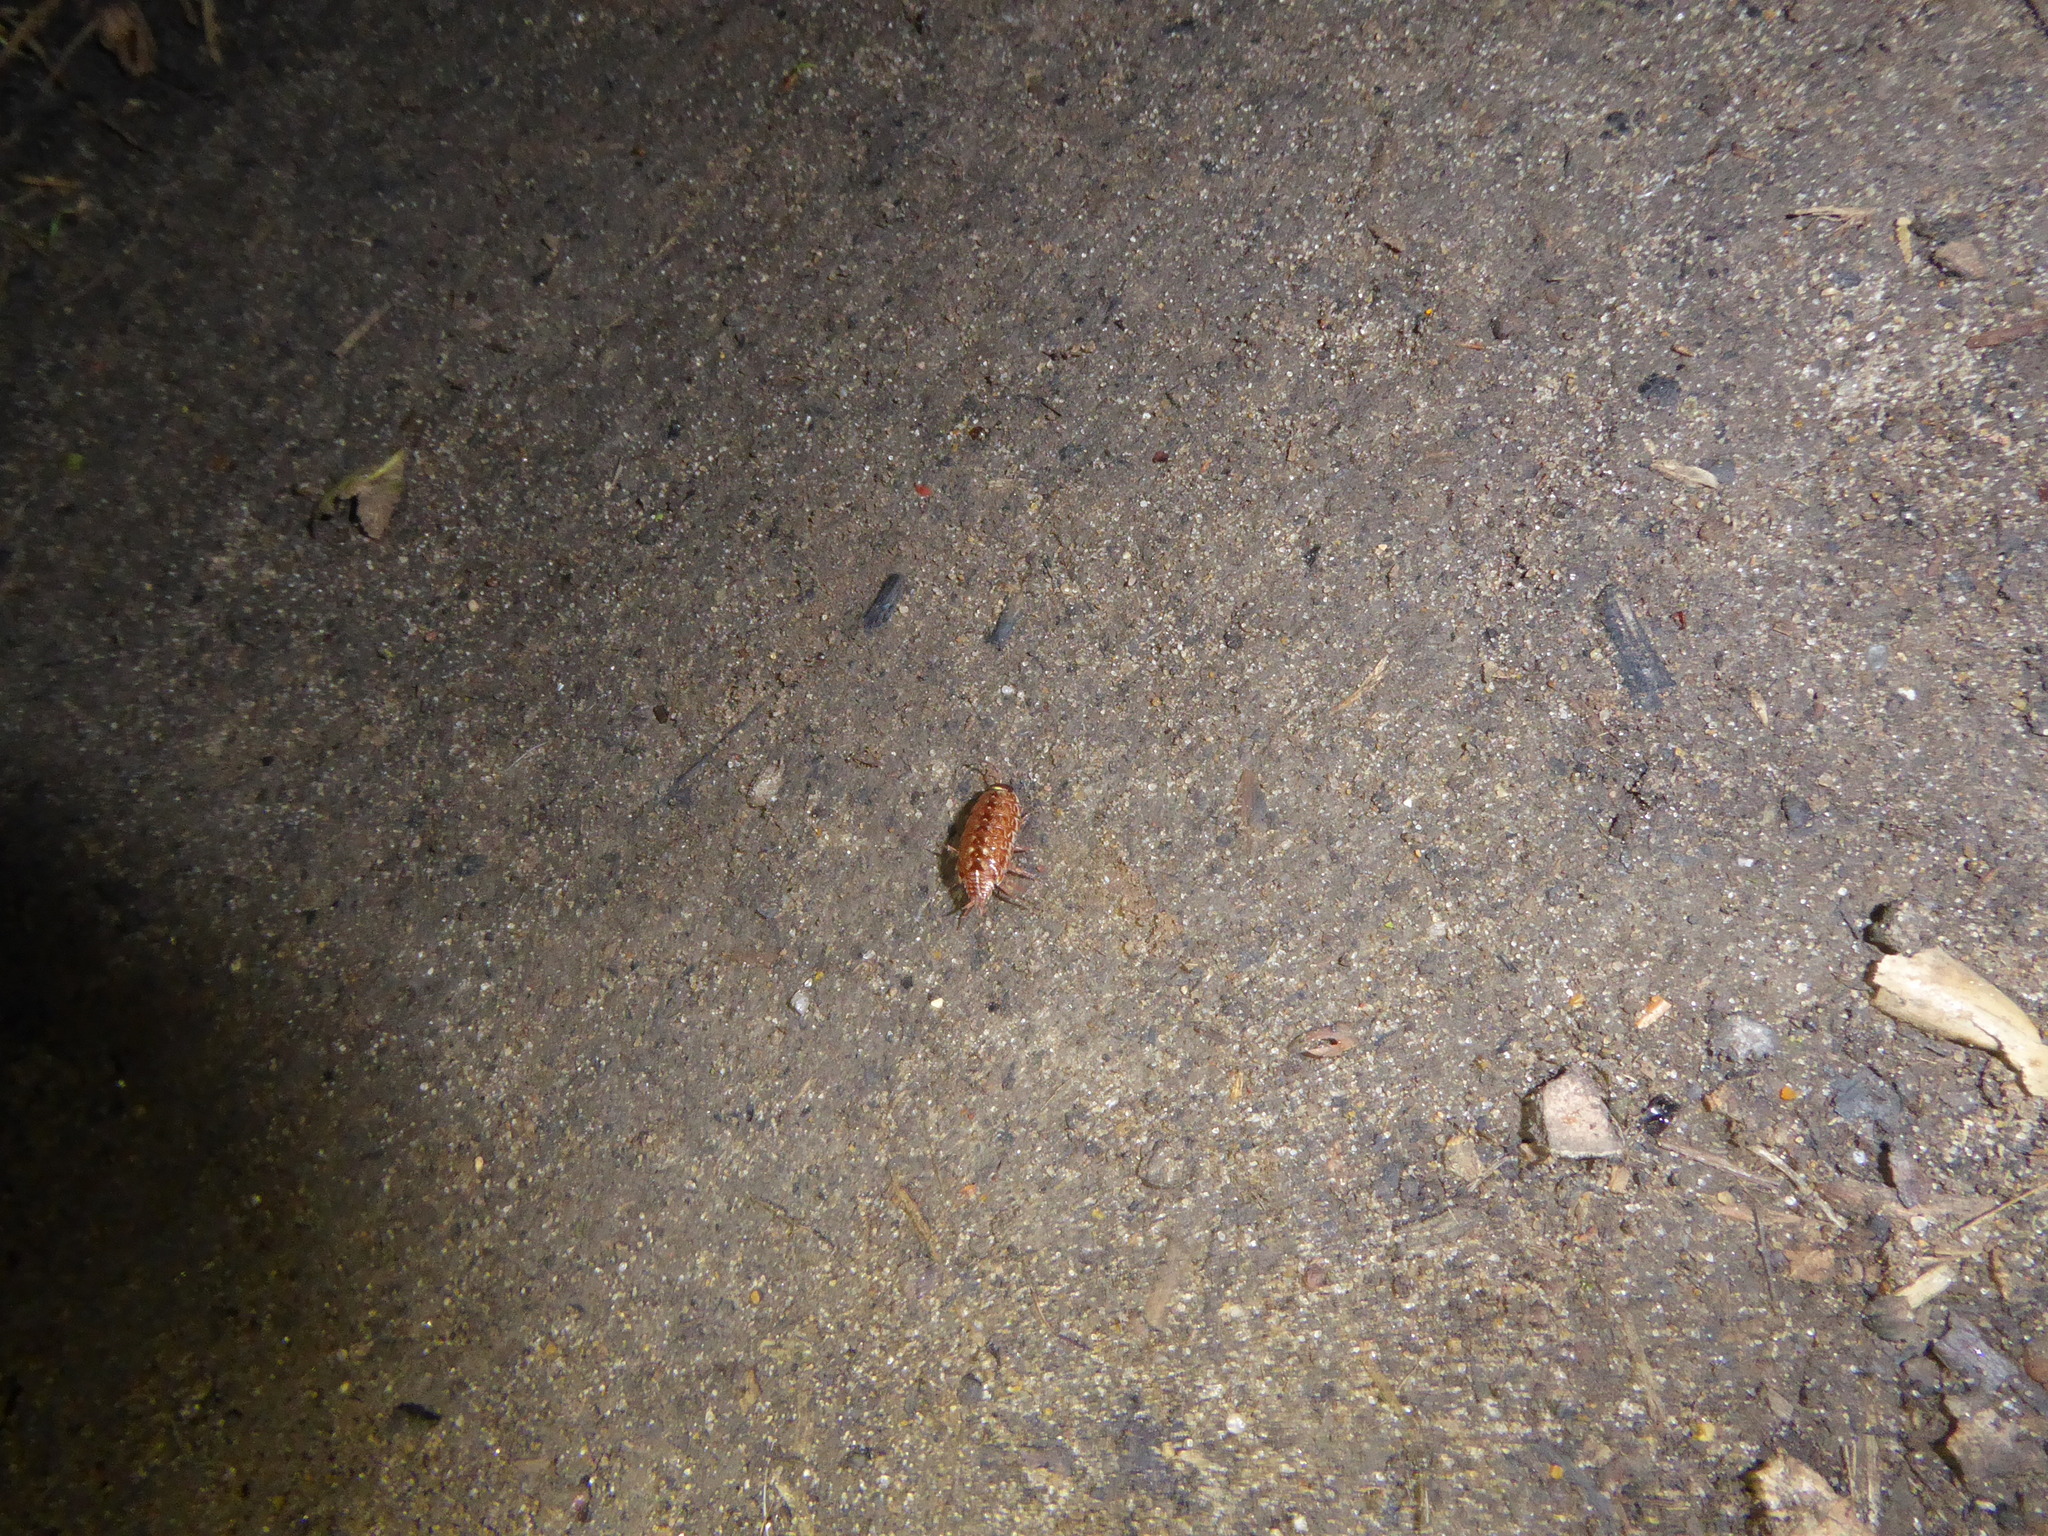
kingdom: Animalia
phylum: Arthropoda
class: Malacostraca
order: Isopoda
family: Philosciidae
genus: Philoscia
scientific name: Philoscia muscorum
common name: Common striped woodlouse
